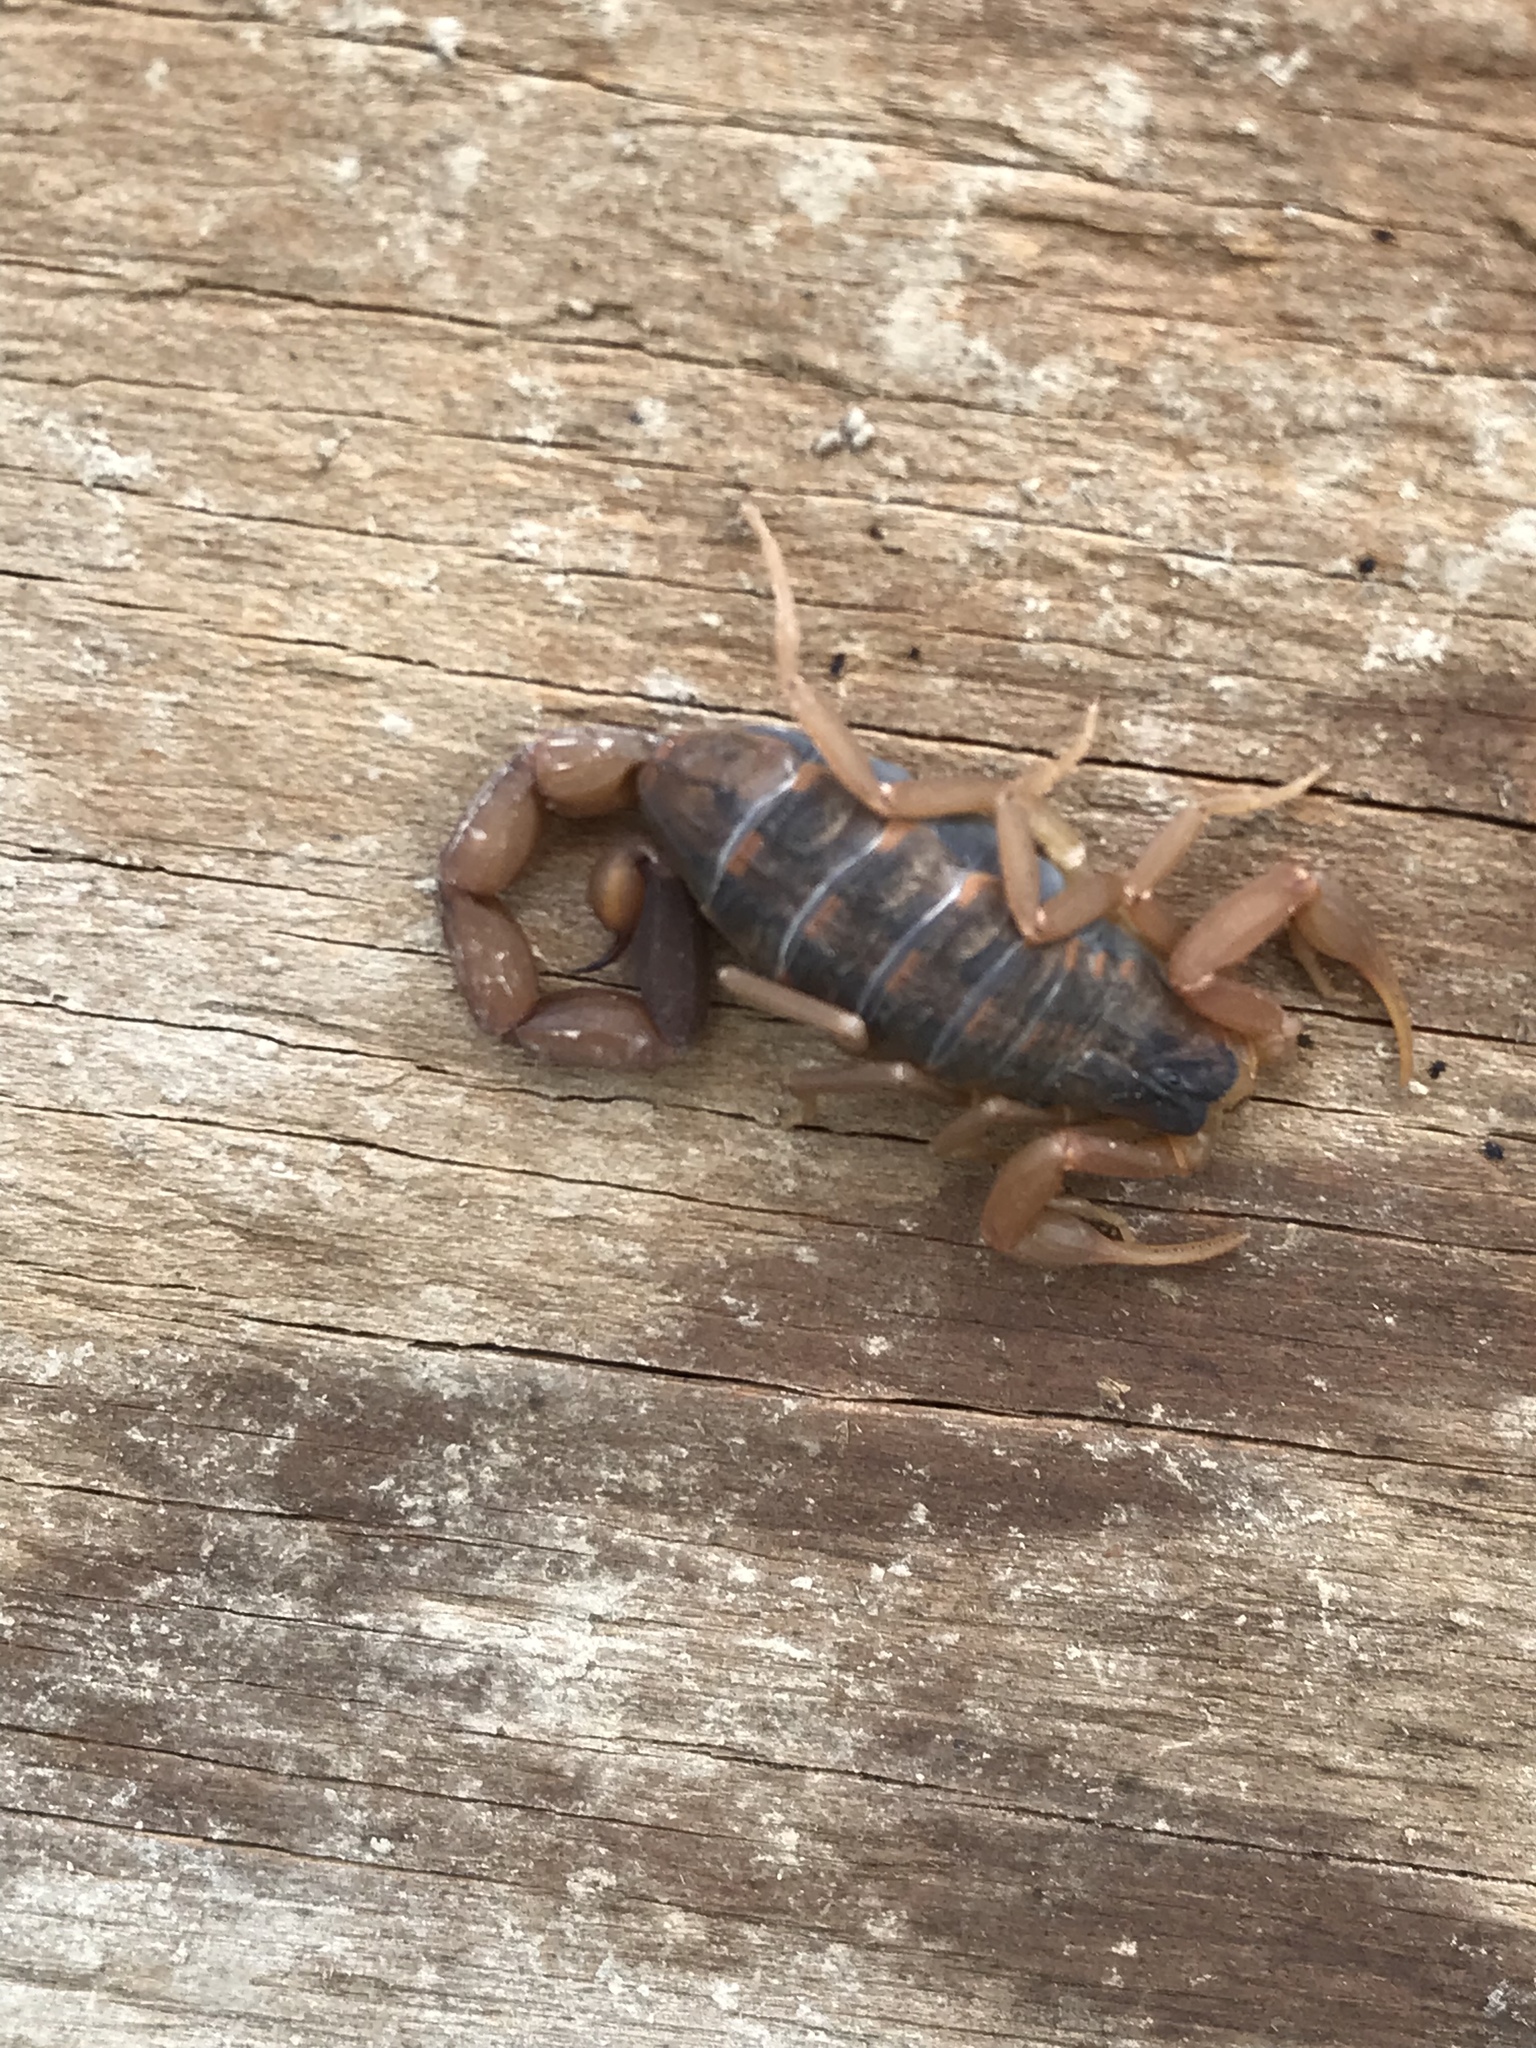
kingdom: Animalia
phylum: Arthropoda
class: Arachnida
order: Scorpiones
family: Buthidae
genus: Centruroides
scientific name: Centruroides vittatus
